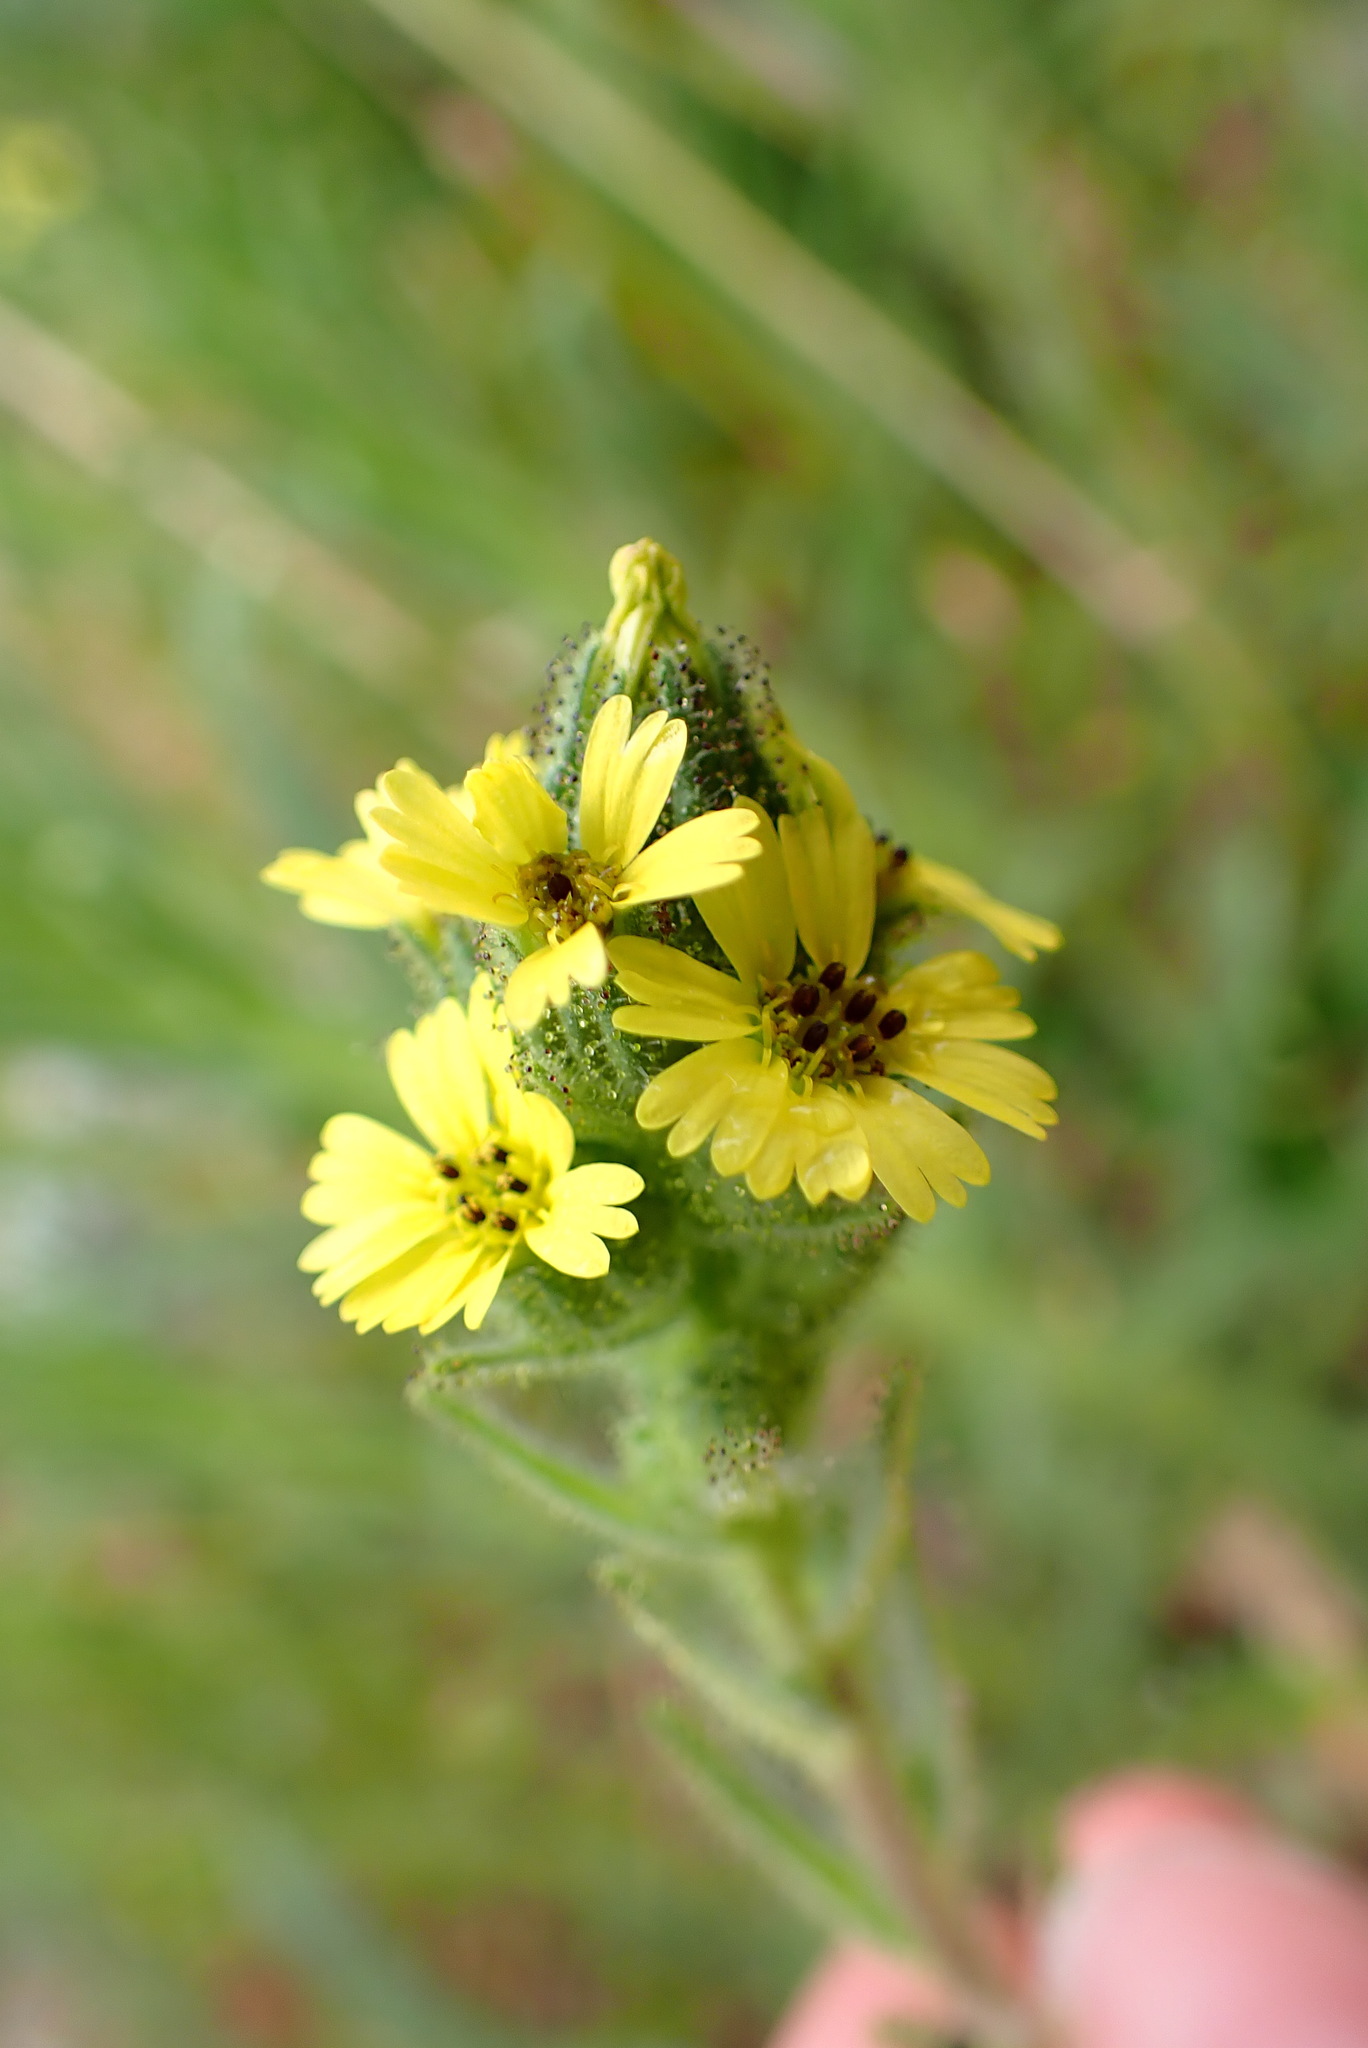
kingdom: Plantae
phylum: Tracheophyta
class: Magnoliopsida
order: Asterales
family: Asteraceae
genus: Madia
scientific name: Madia sativa
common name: Coast tarweed
